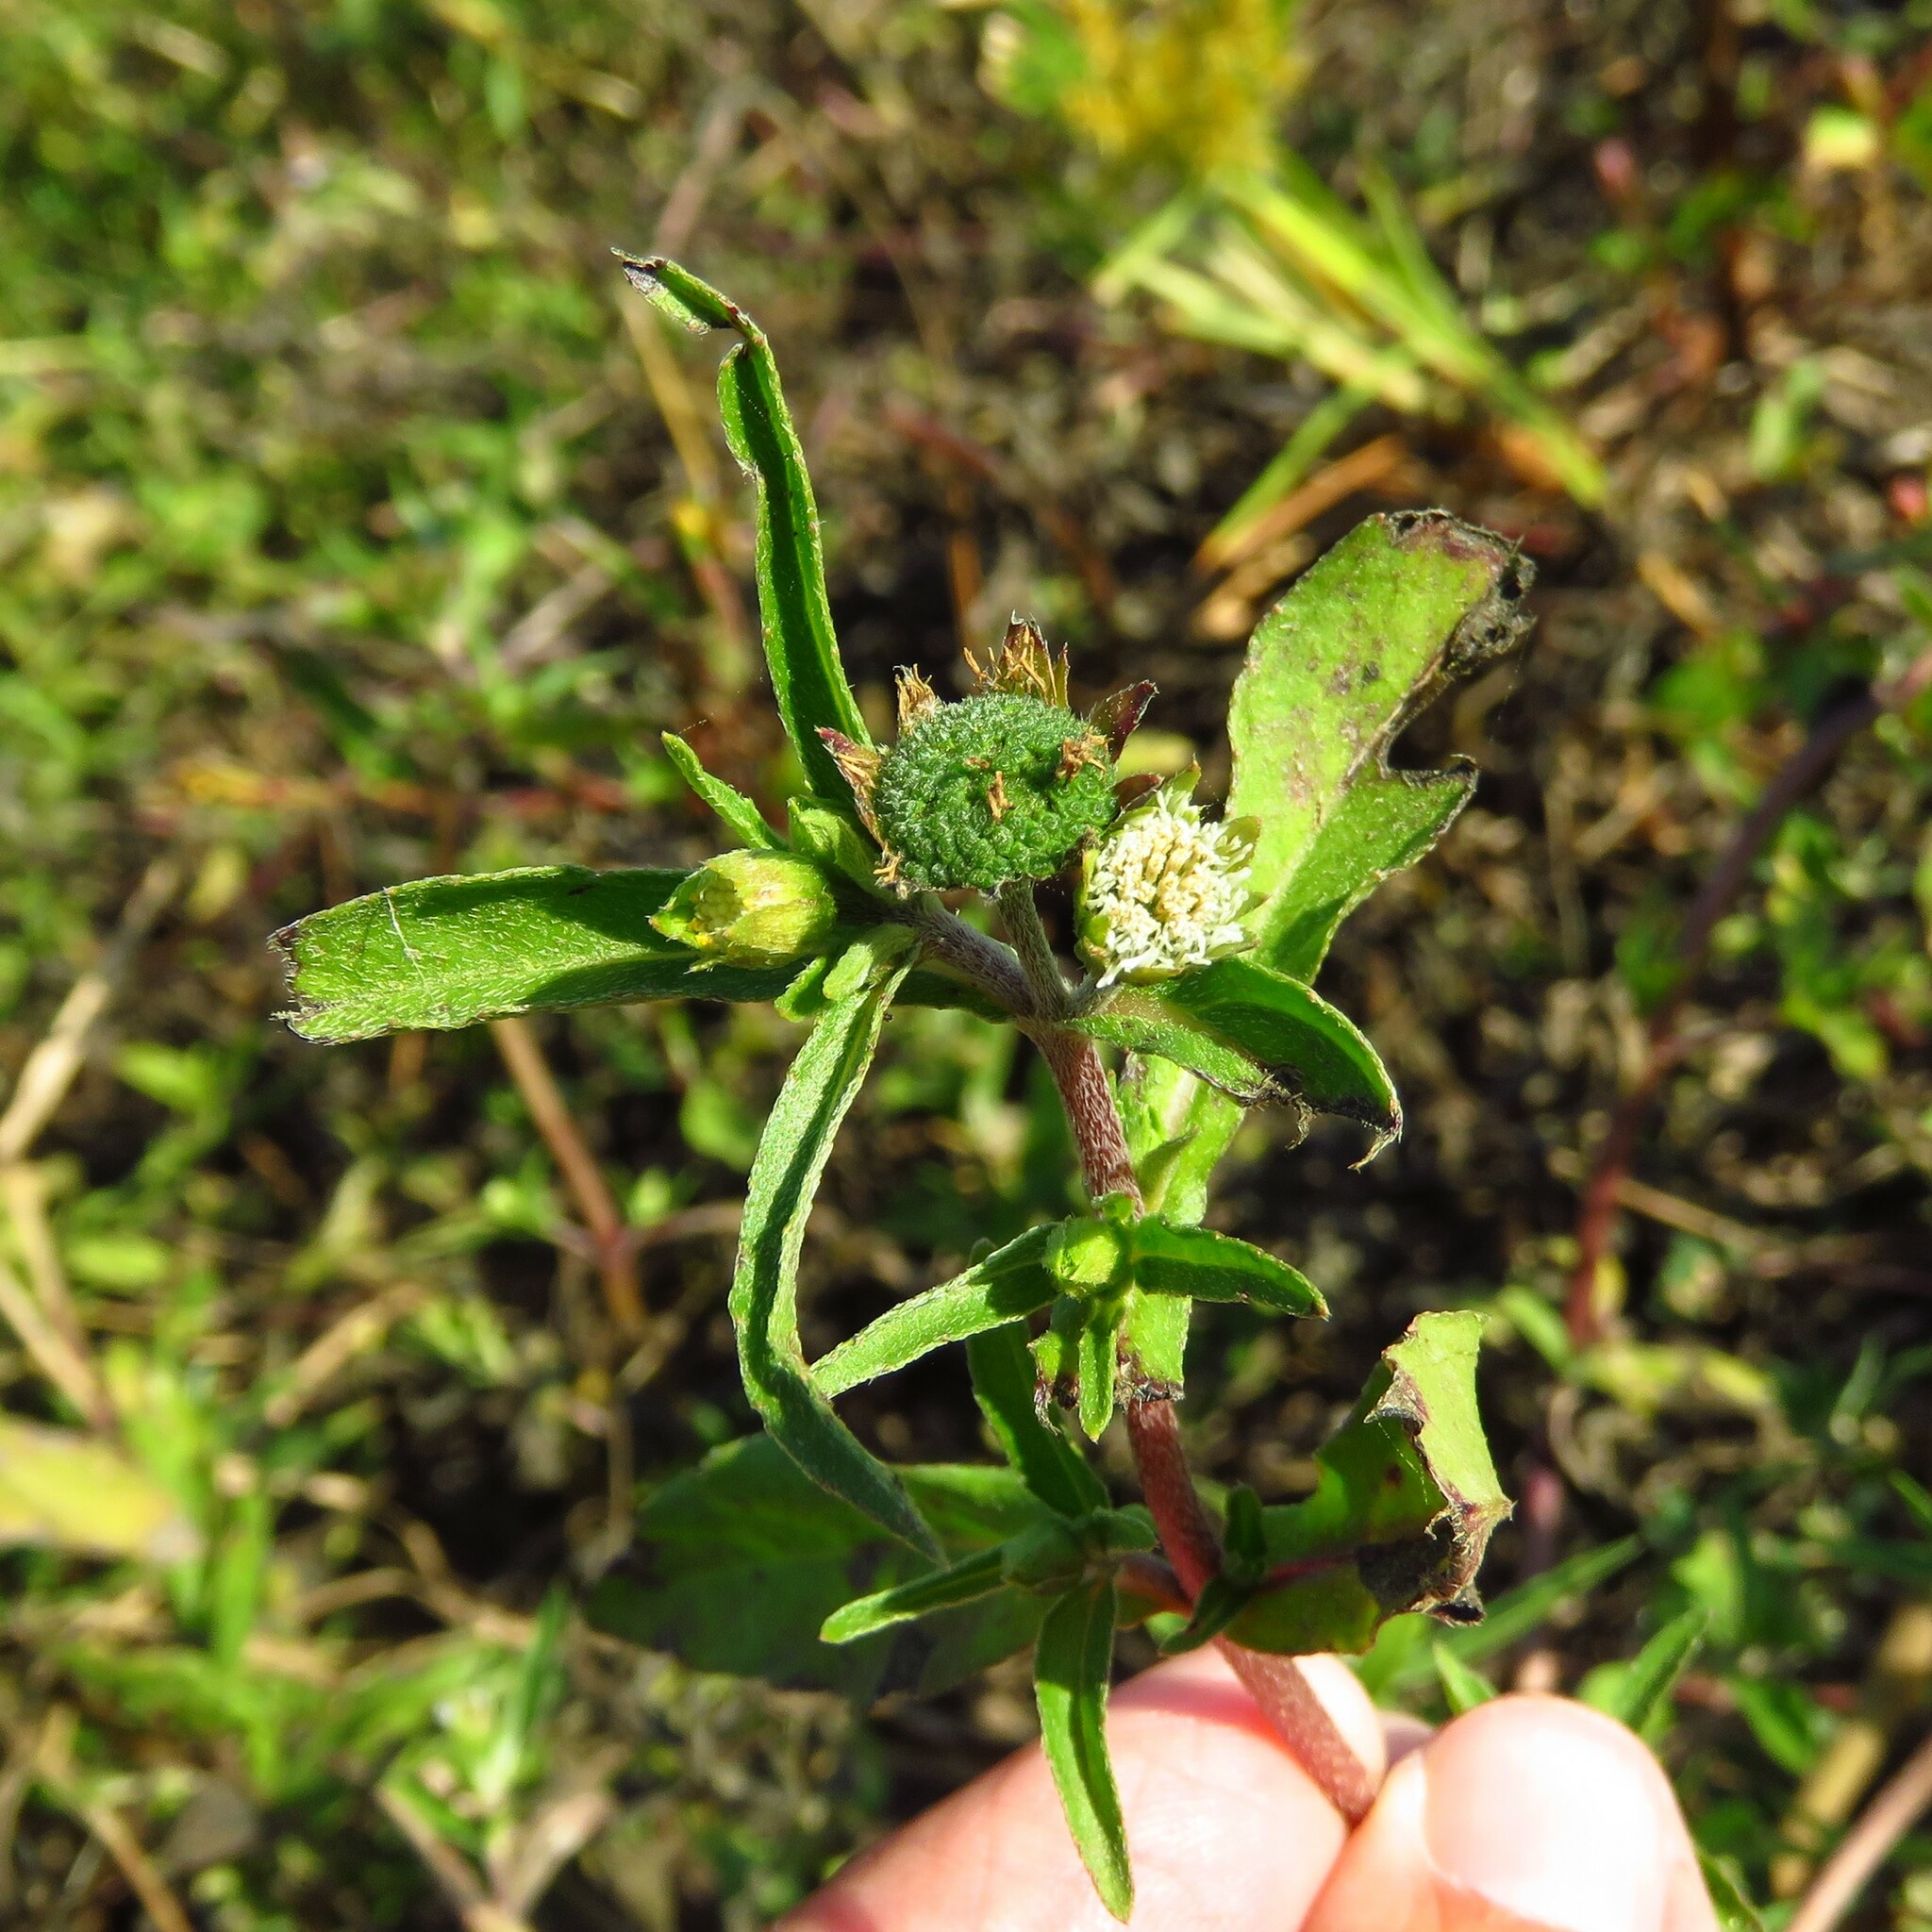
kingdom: Plantae
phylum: Tracheophyta
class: Magnoliopsida
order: Asterales
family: Asteraceae
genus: Eclipta
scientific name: Eclipta prostrata
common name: False daisy
